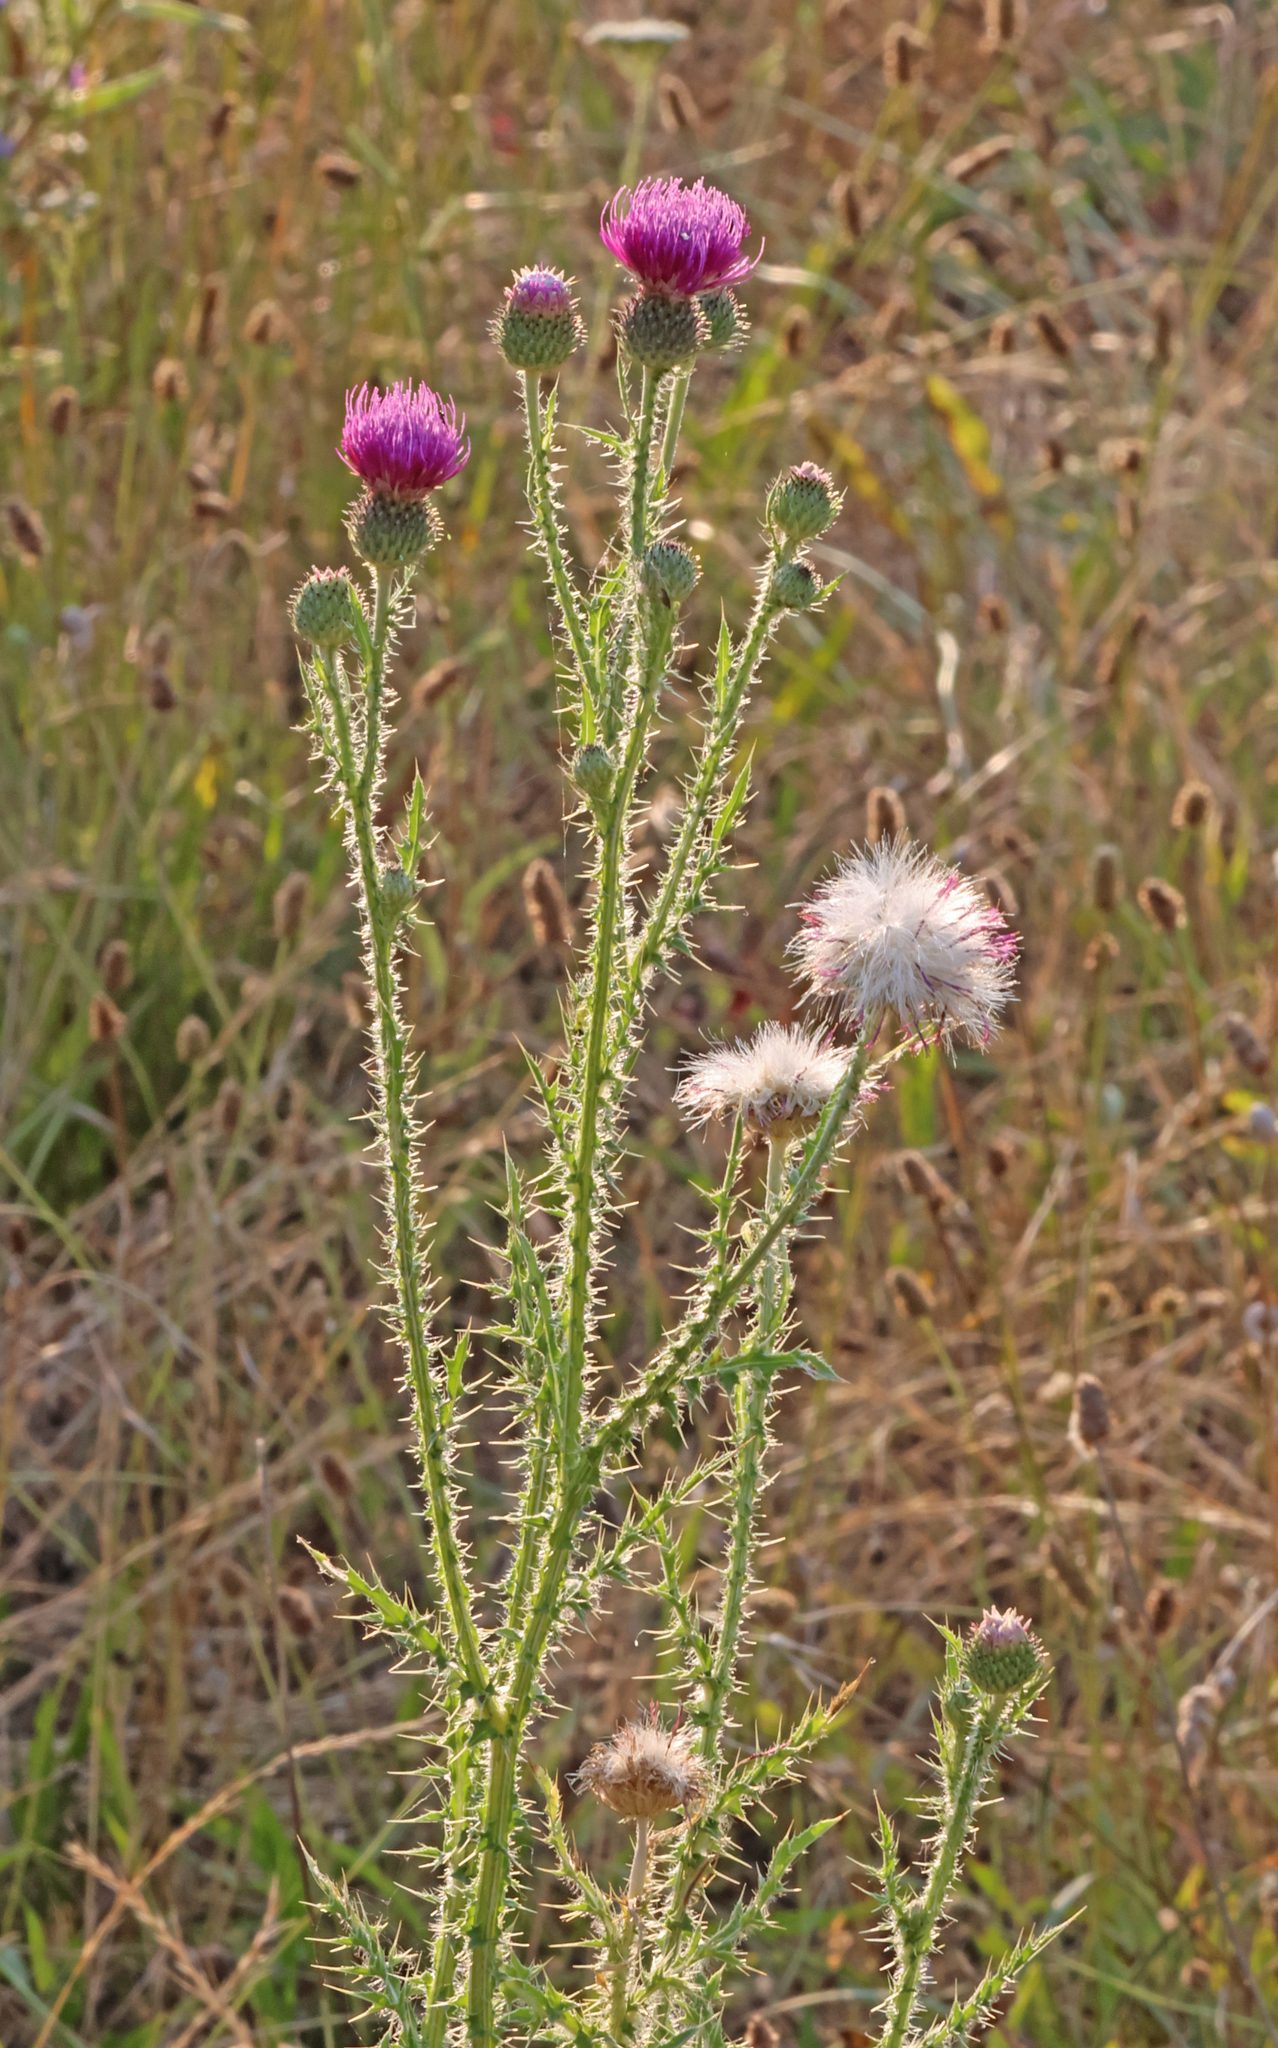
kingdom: Plantae
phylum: Tracheophyta
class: Magnoliopsida
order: Asterales
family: Asteraceae
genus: Carduus
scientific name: Carduus acanthoides
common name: Plumeless thistle
